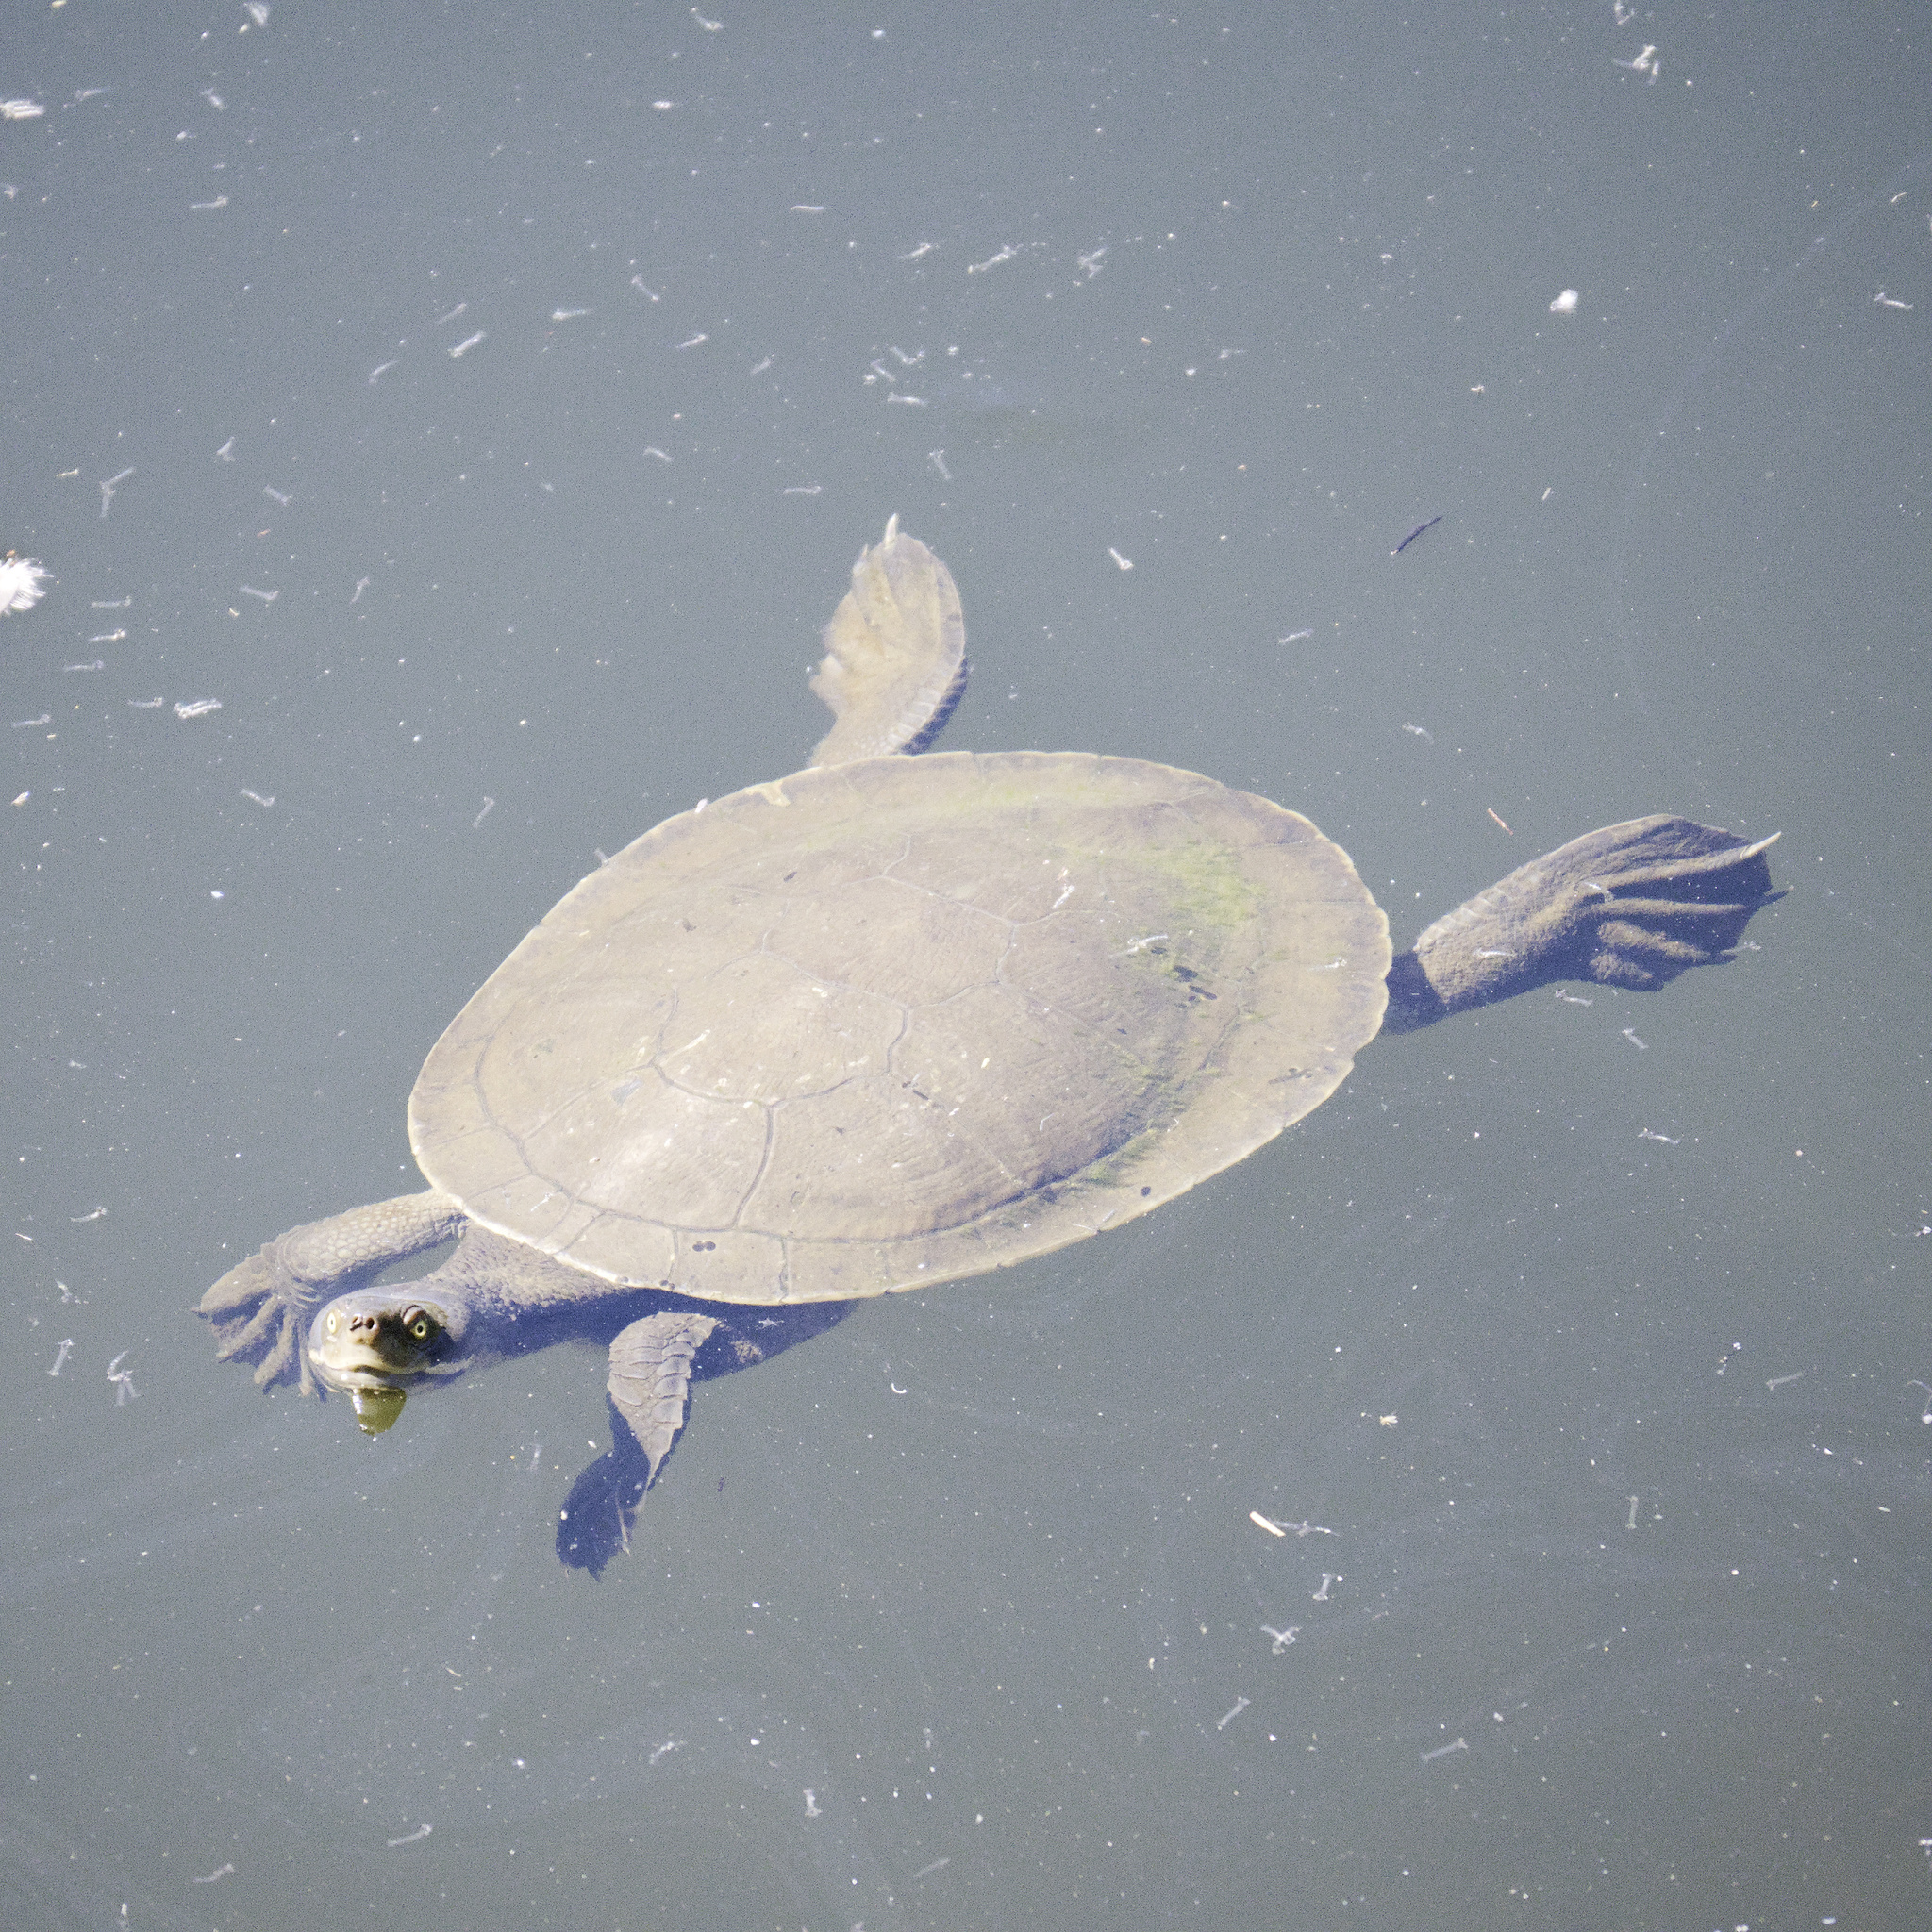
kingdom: Animalia
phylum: Chordata
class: Testudines
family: Chelidae
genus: Emydura
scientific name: Emydura macquarii
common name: Murray river turtle
